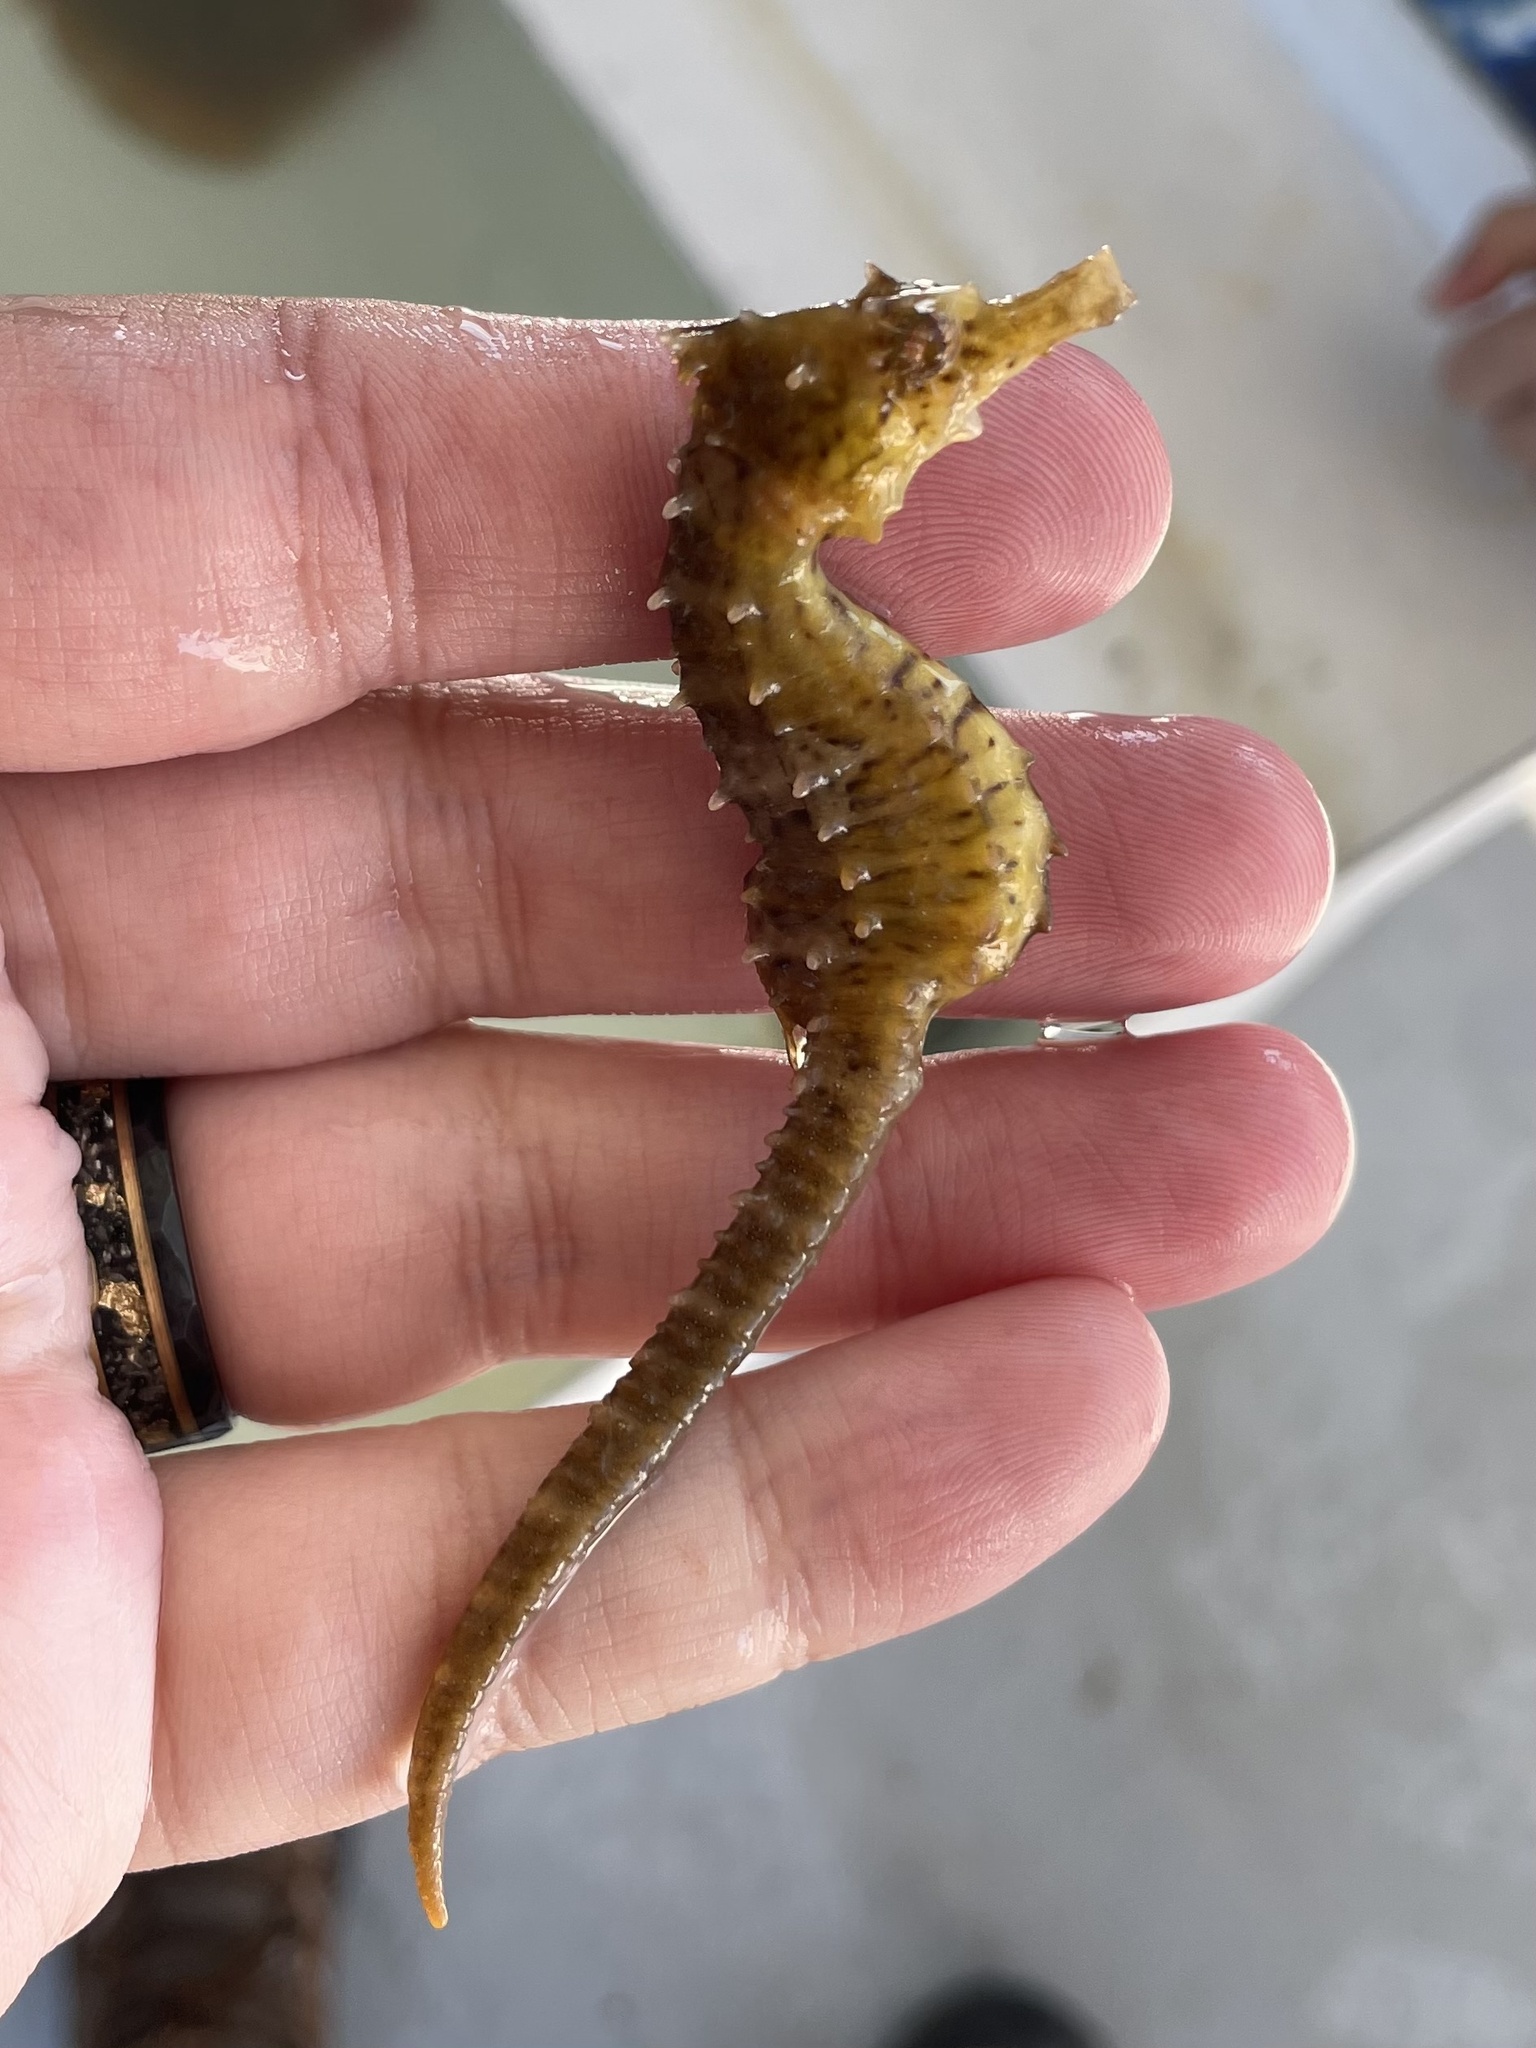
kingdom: Animalia
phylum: Chordata
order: Syngnathiformes
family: Syngnathidae
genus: Hippocampus
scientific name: Hippocampus erectus
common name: Lined seahorse
